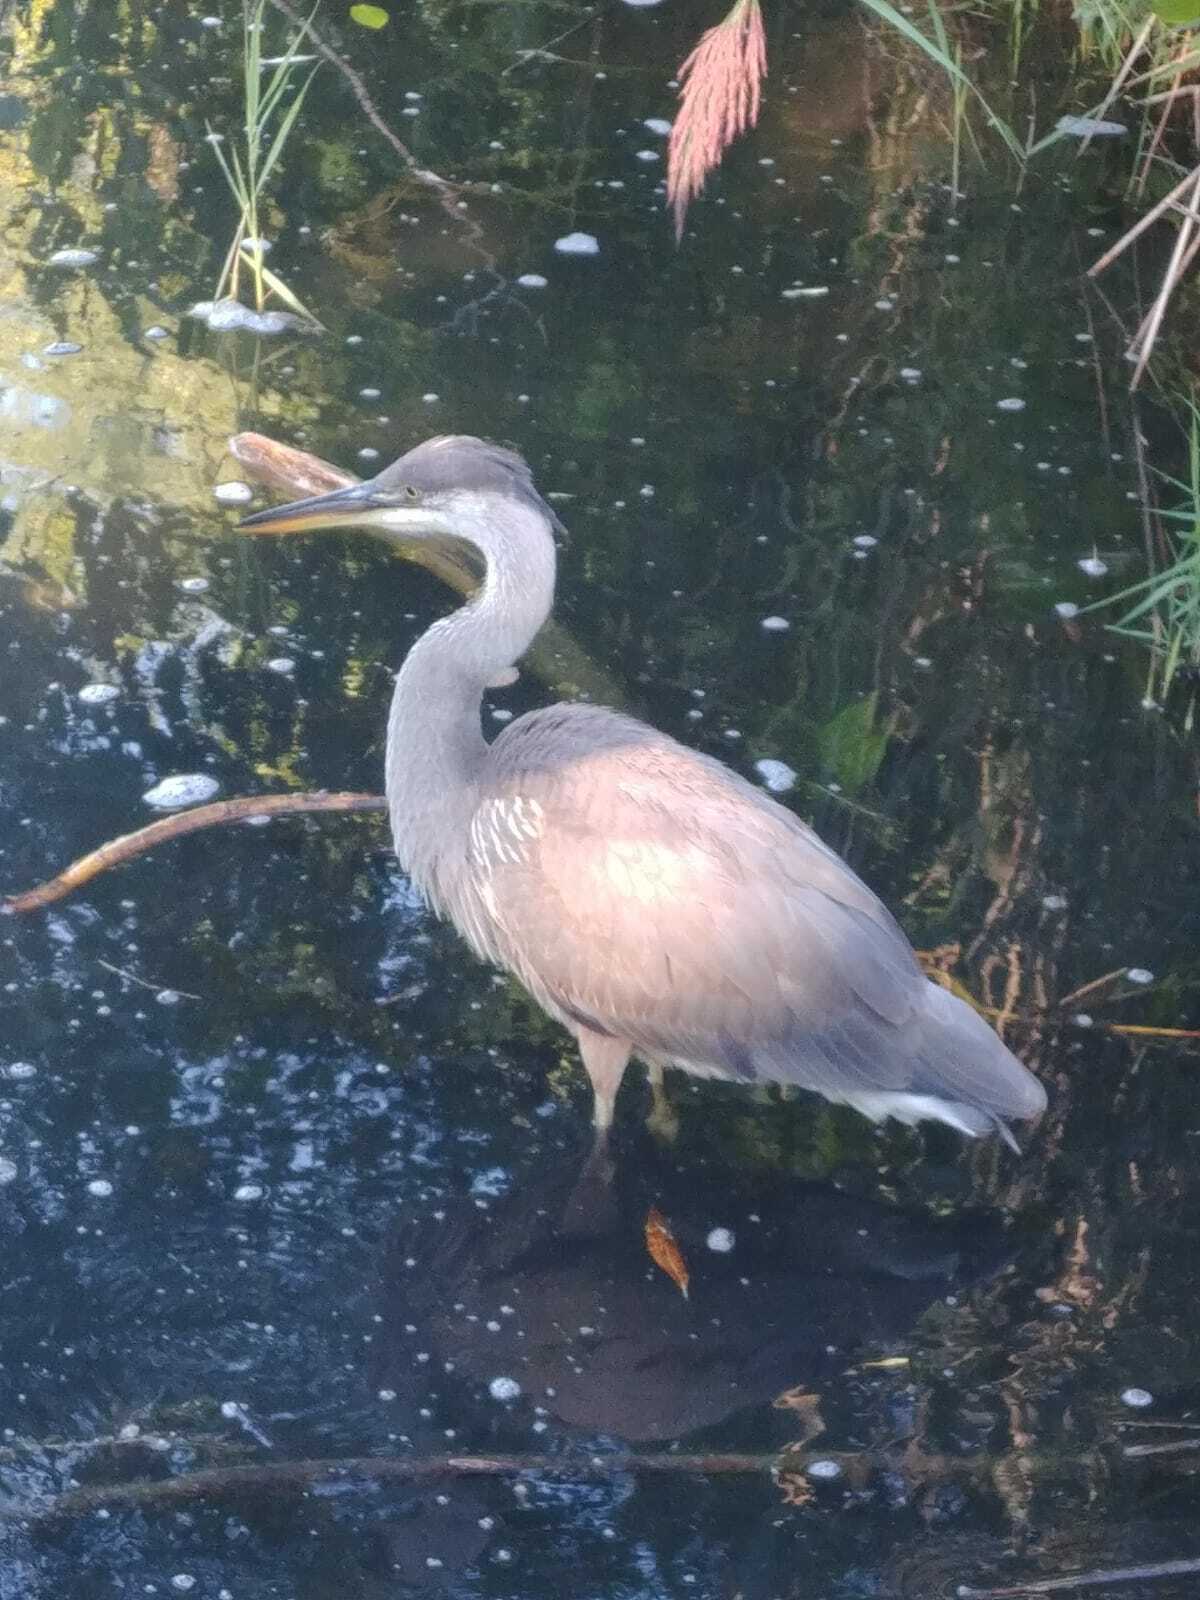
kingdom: Animalia
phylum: Chordata
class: Aves
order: Pelecaniformes
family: Ardeidae
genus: Ardea
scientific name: Ardea herodias
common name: Great blue heron
